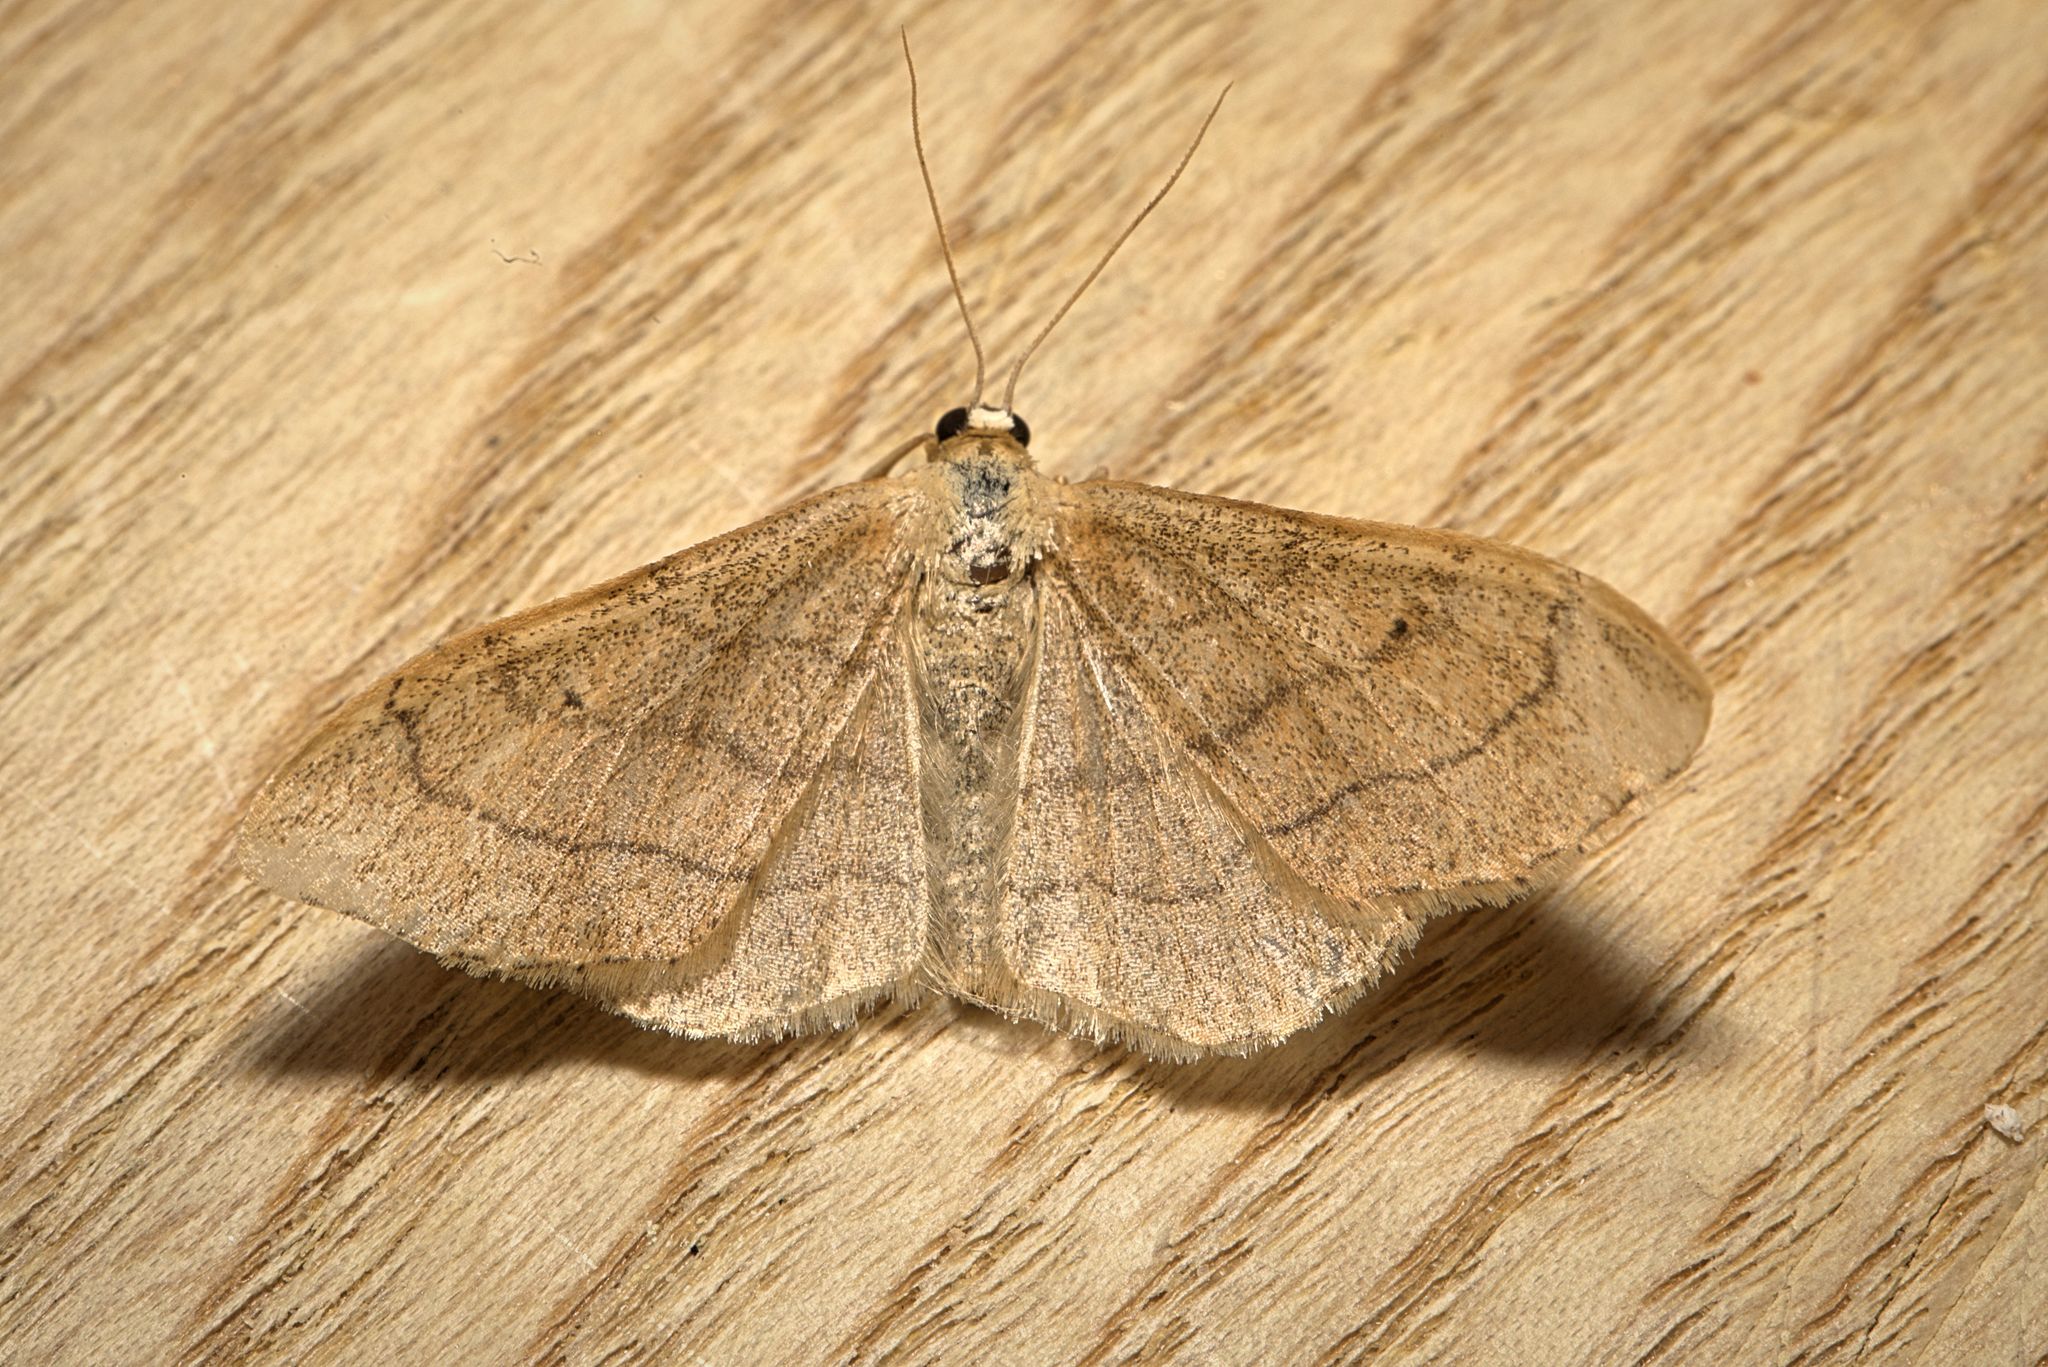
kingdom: Animalia
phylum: Arthropoda
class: Insecta
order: Lepidoptera
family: Geometridae
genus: Idaea
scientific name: Idaea aversata
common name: Riband wave
